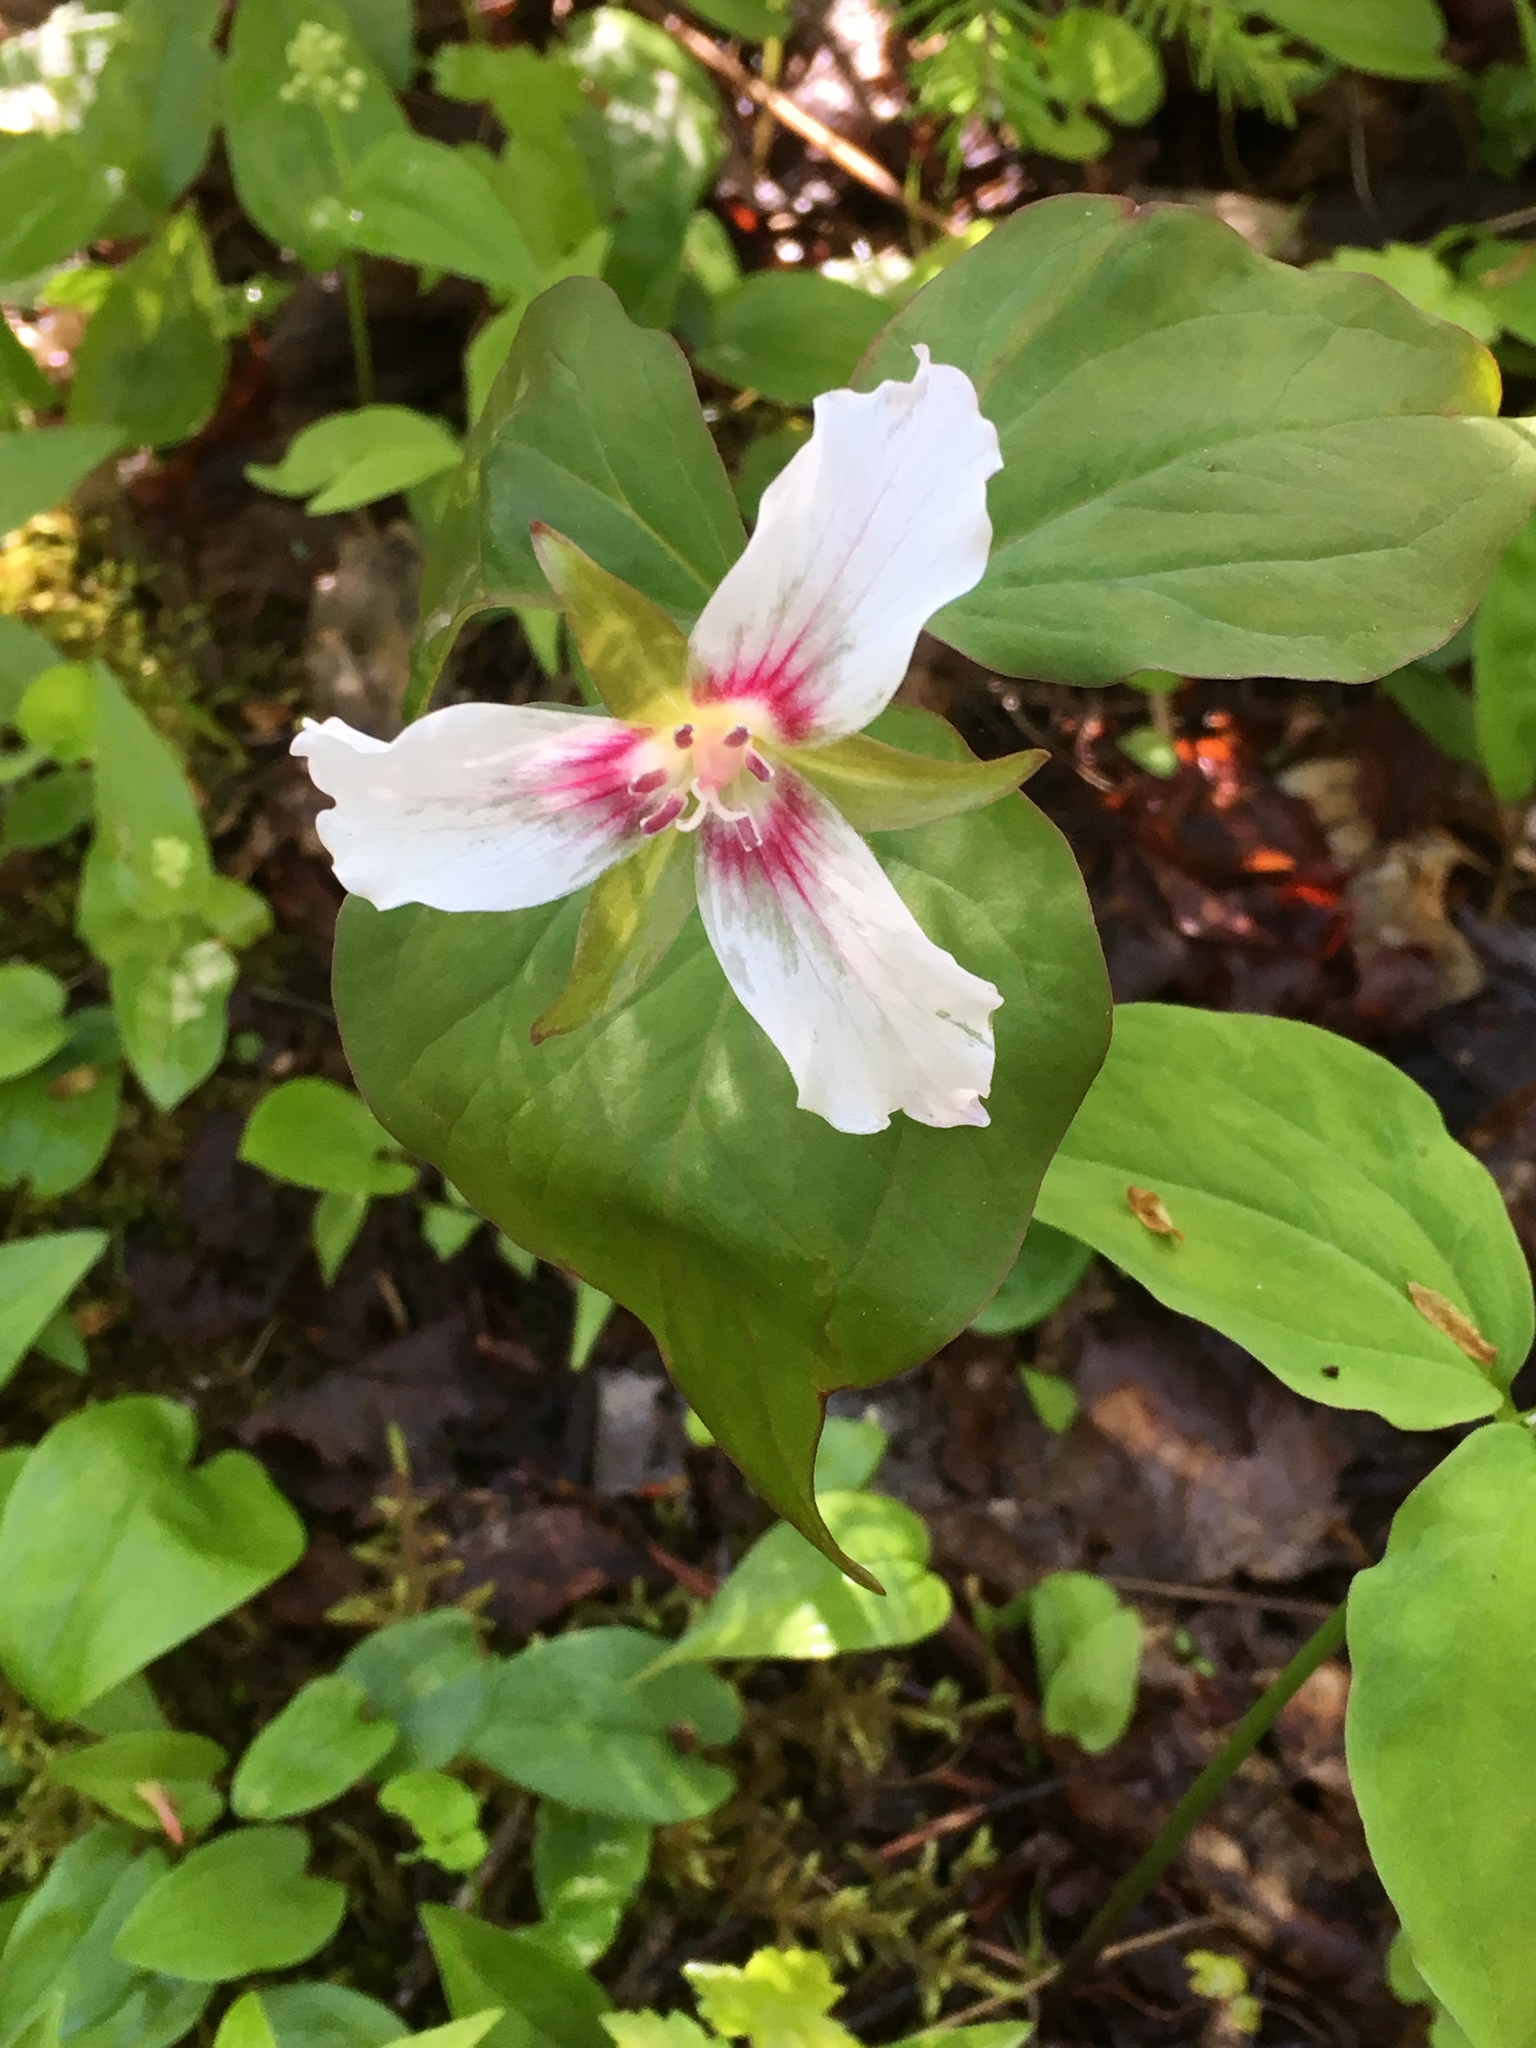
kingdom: Plantae
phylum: Tracheophyta
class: Liliopsida
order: Liliales
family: Melanthiaceae
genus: Trillium
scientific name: Trillium undulatum
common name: Paint trillium
